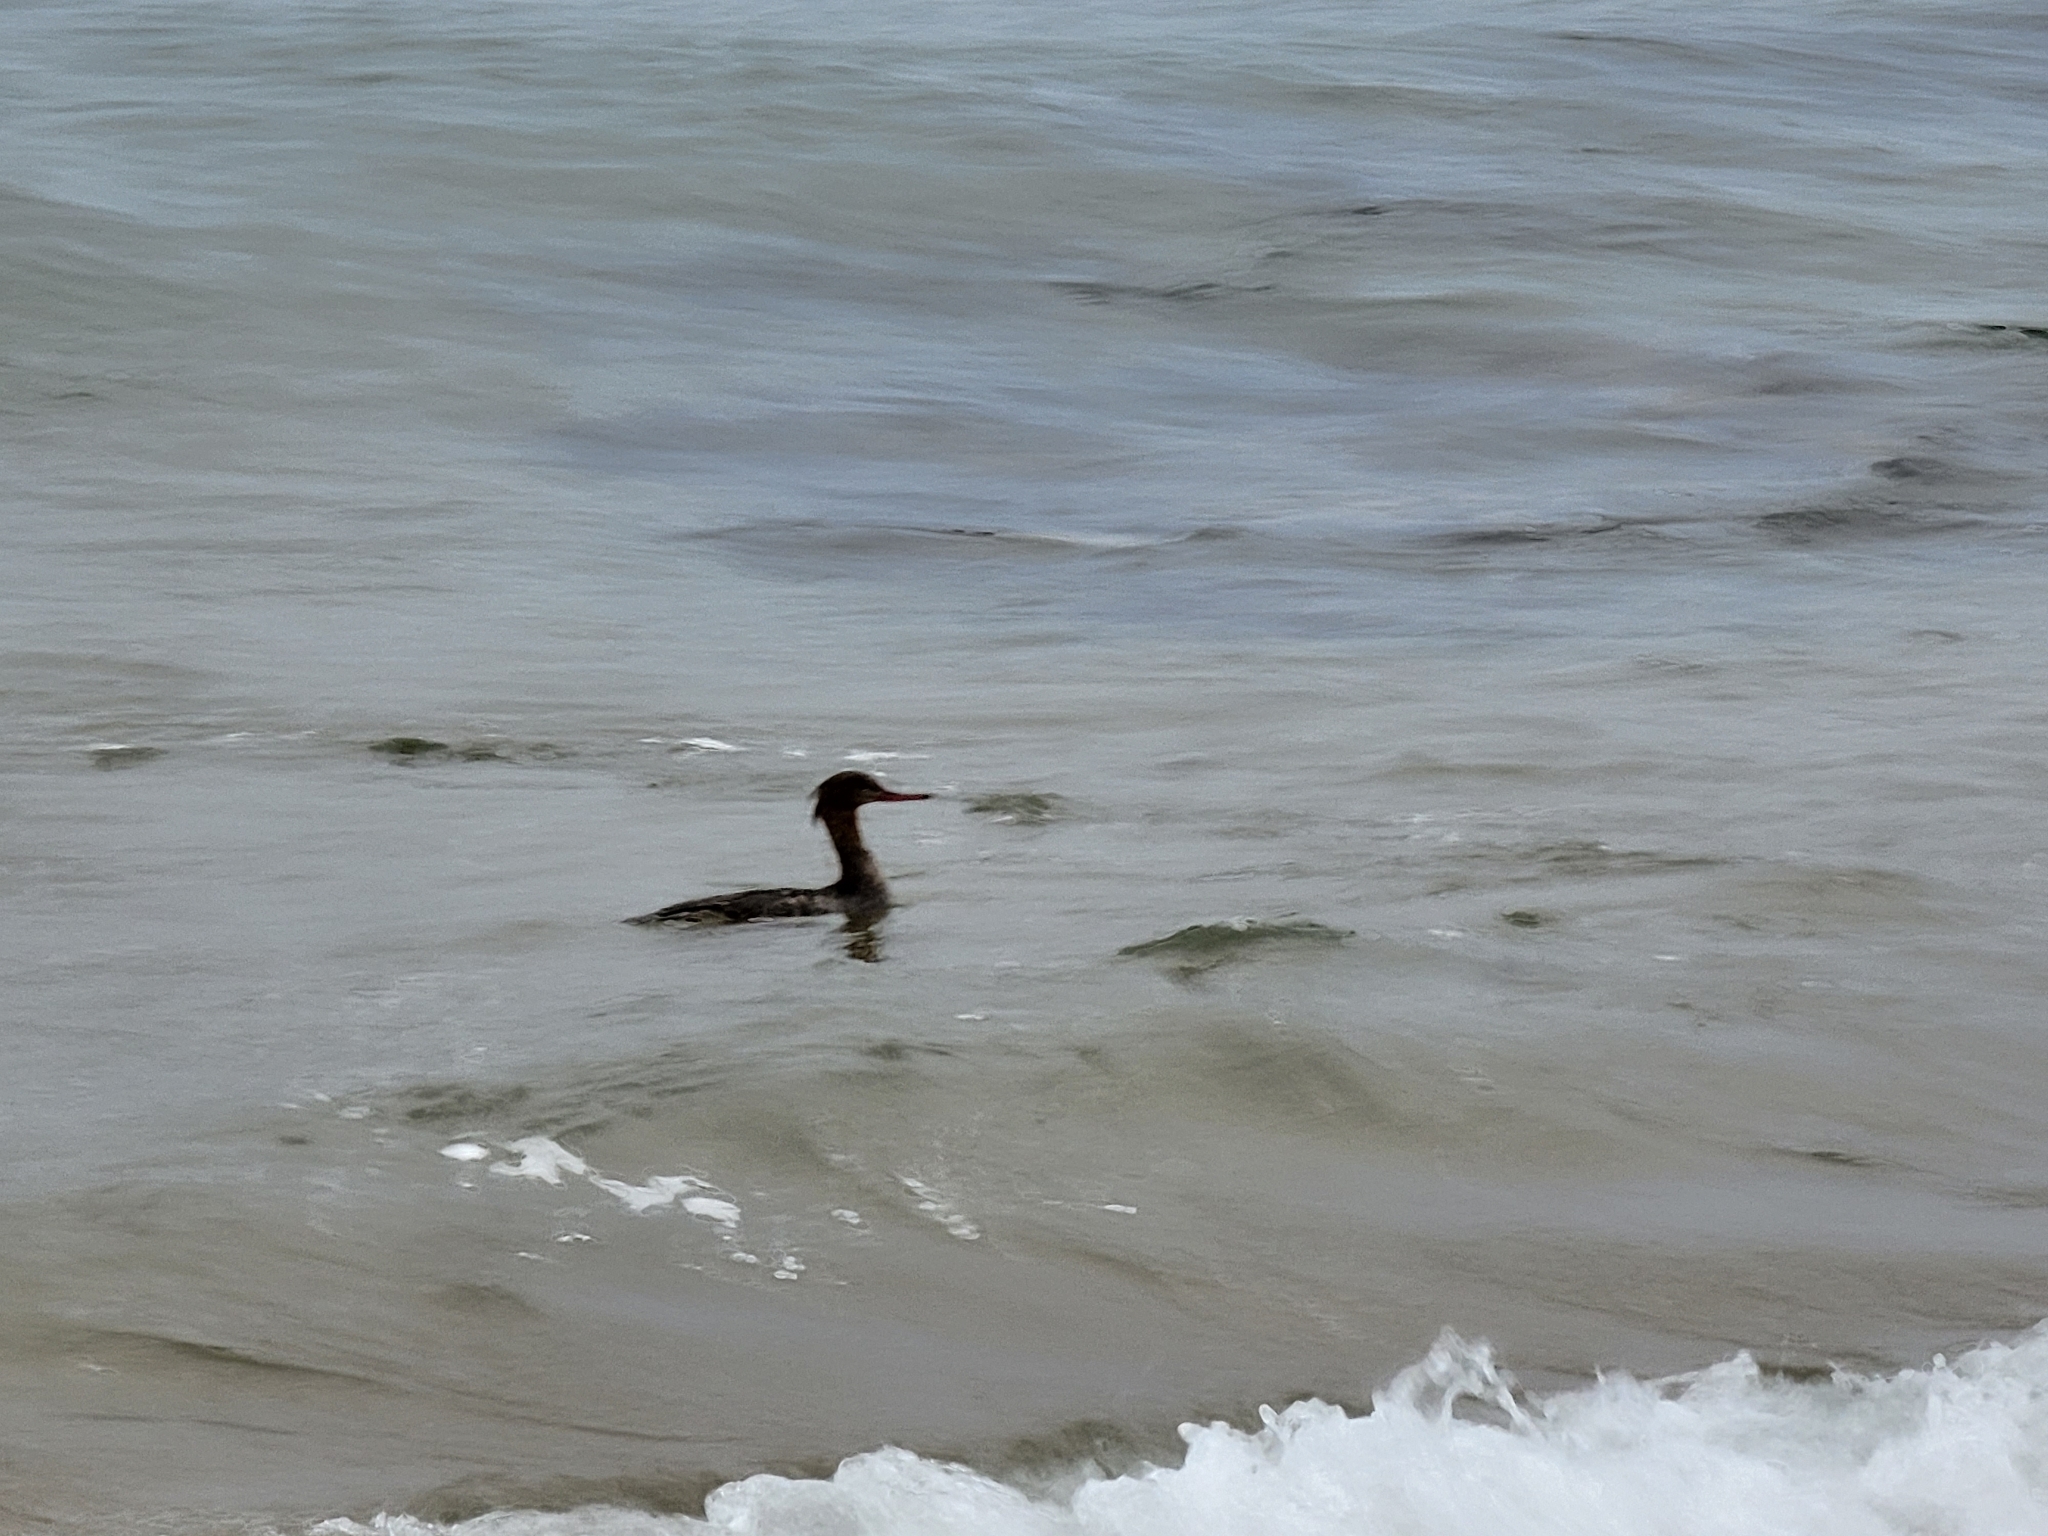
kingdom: Animalia
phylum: Chordata
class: Aves
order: Anseriformes
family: Anatidae
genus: Mergus
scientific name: Mergus serrator
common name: Red-breasted merganser
